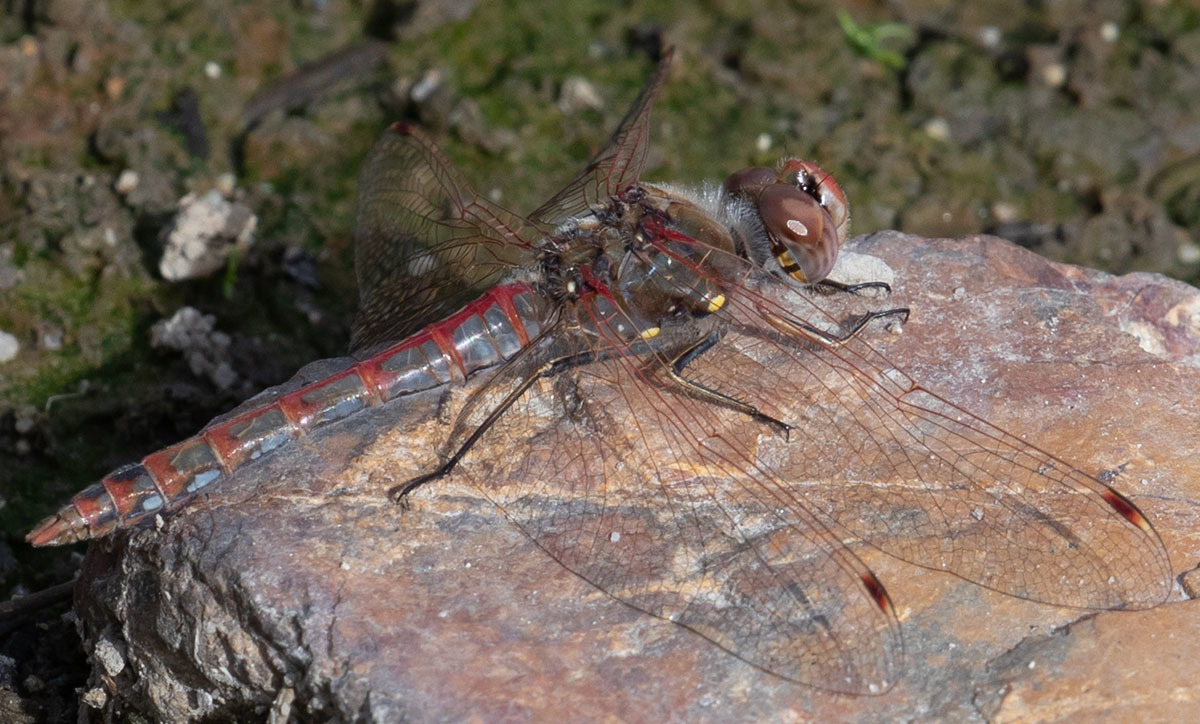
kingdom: Animalia
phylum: Arthropoda
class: Insecta
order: Odonata
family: Libellulidae
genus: Sympetrum
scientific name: Sympetrum corruptum
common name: Variegated meadowhawk
